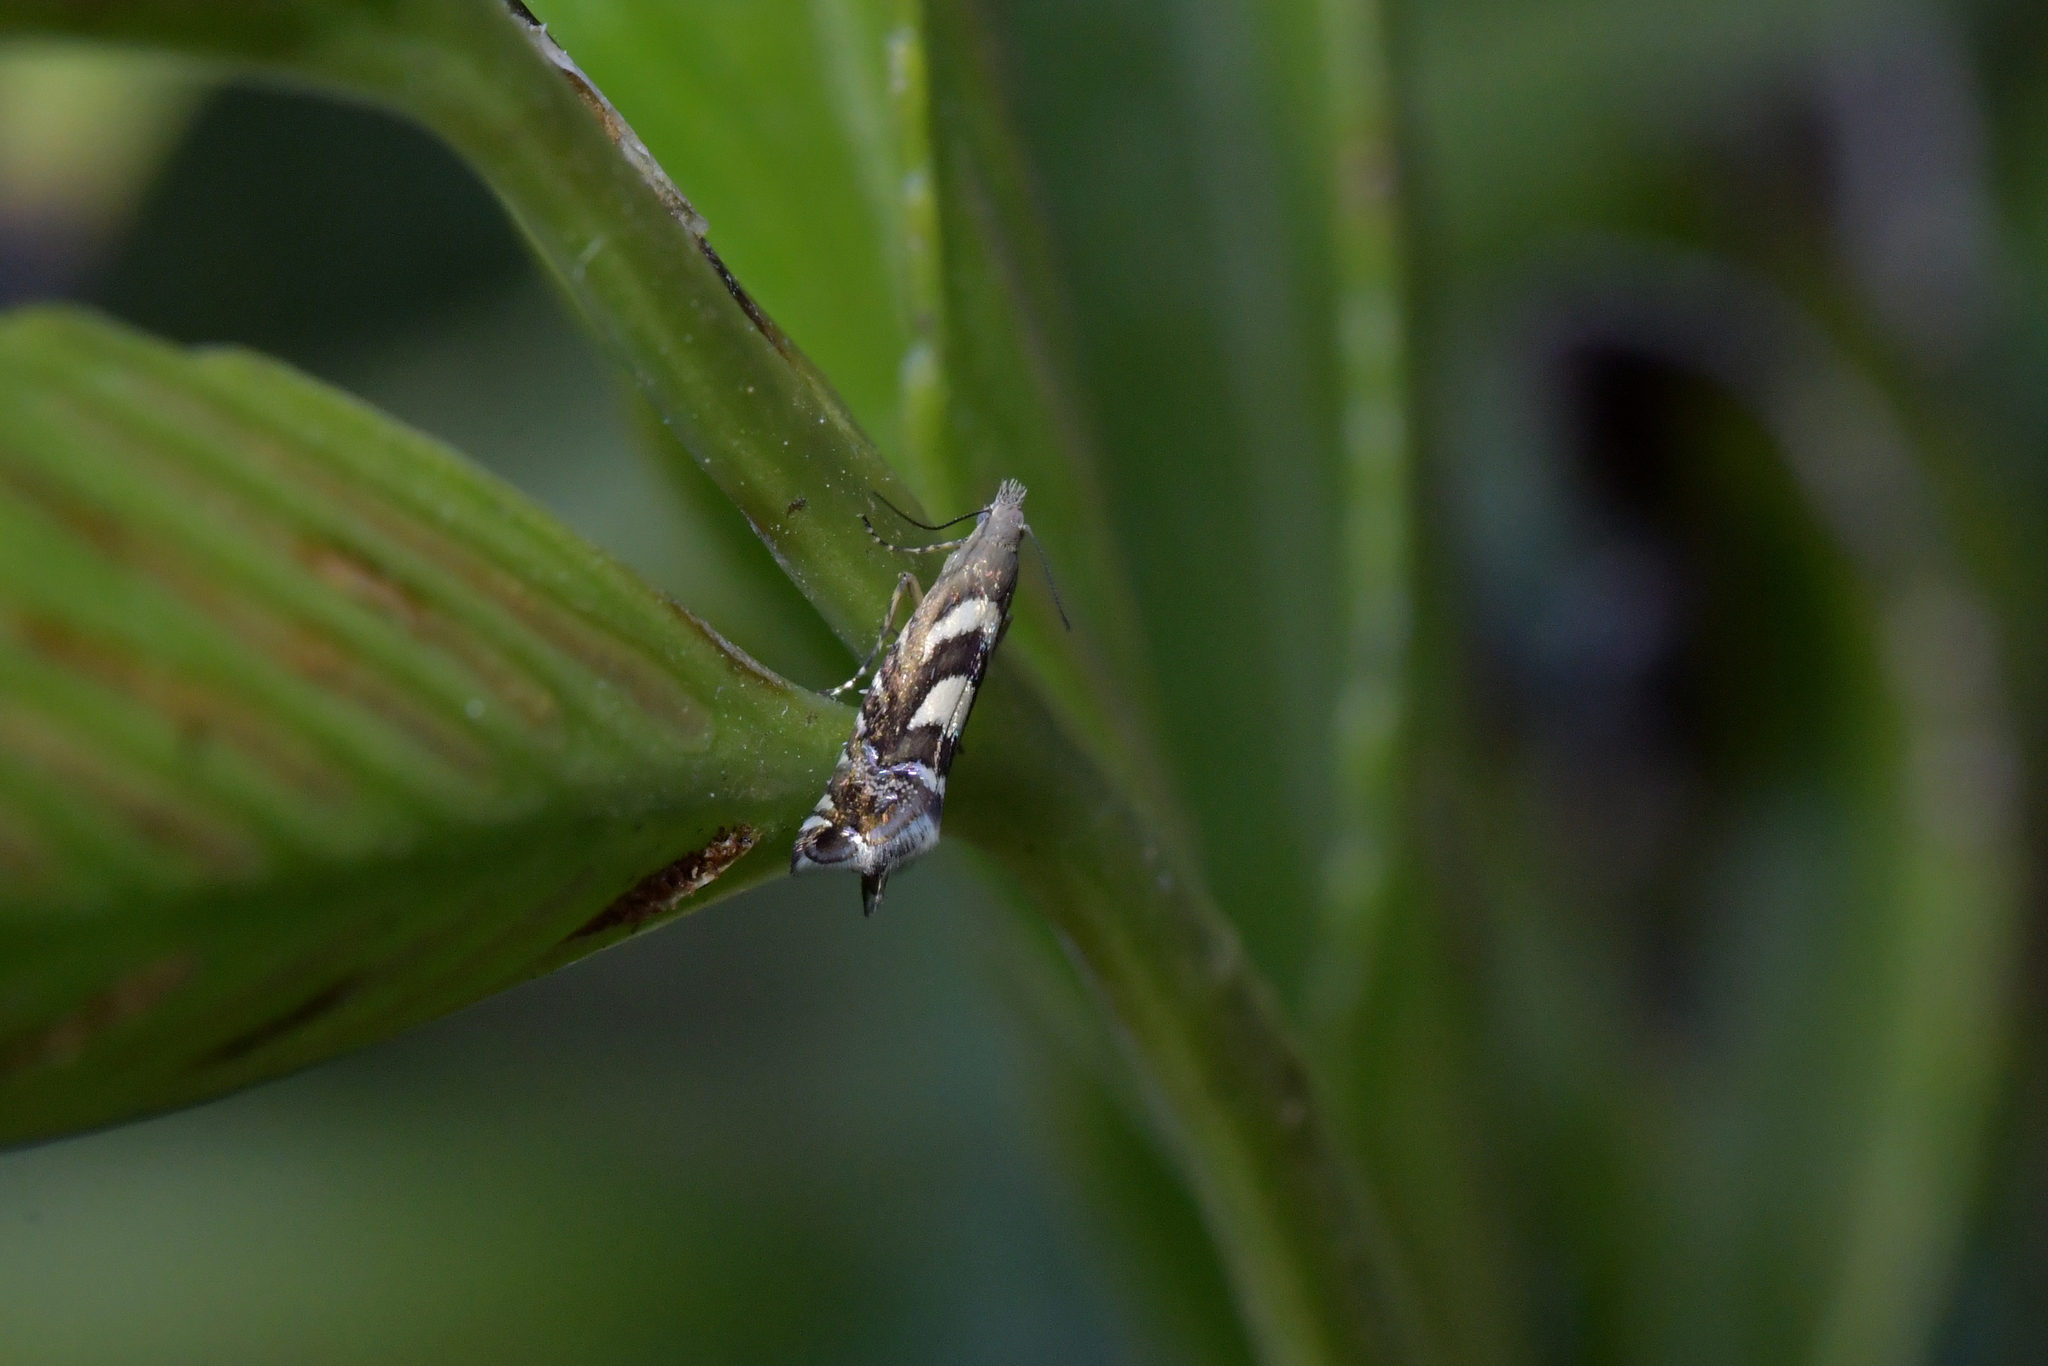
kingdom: Animalia
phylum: Arthropoda
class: Insecta
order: Lepidoptera
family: Glyphipterigidae
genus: Glyphipterix
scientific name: Glyphipterix asteronota
